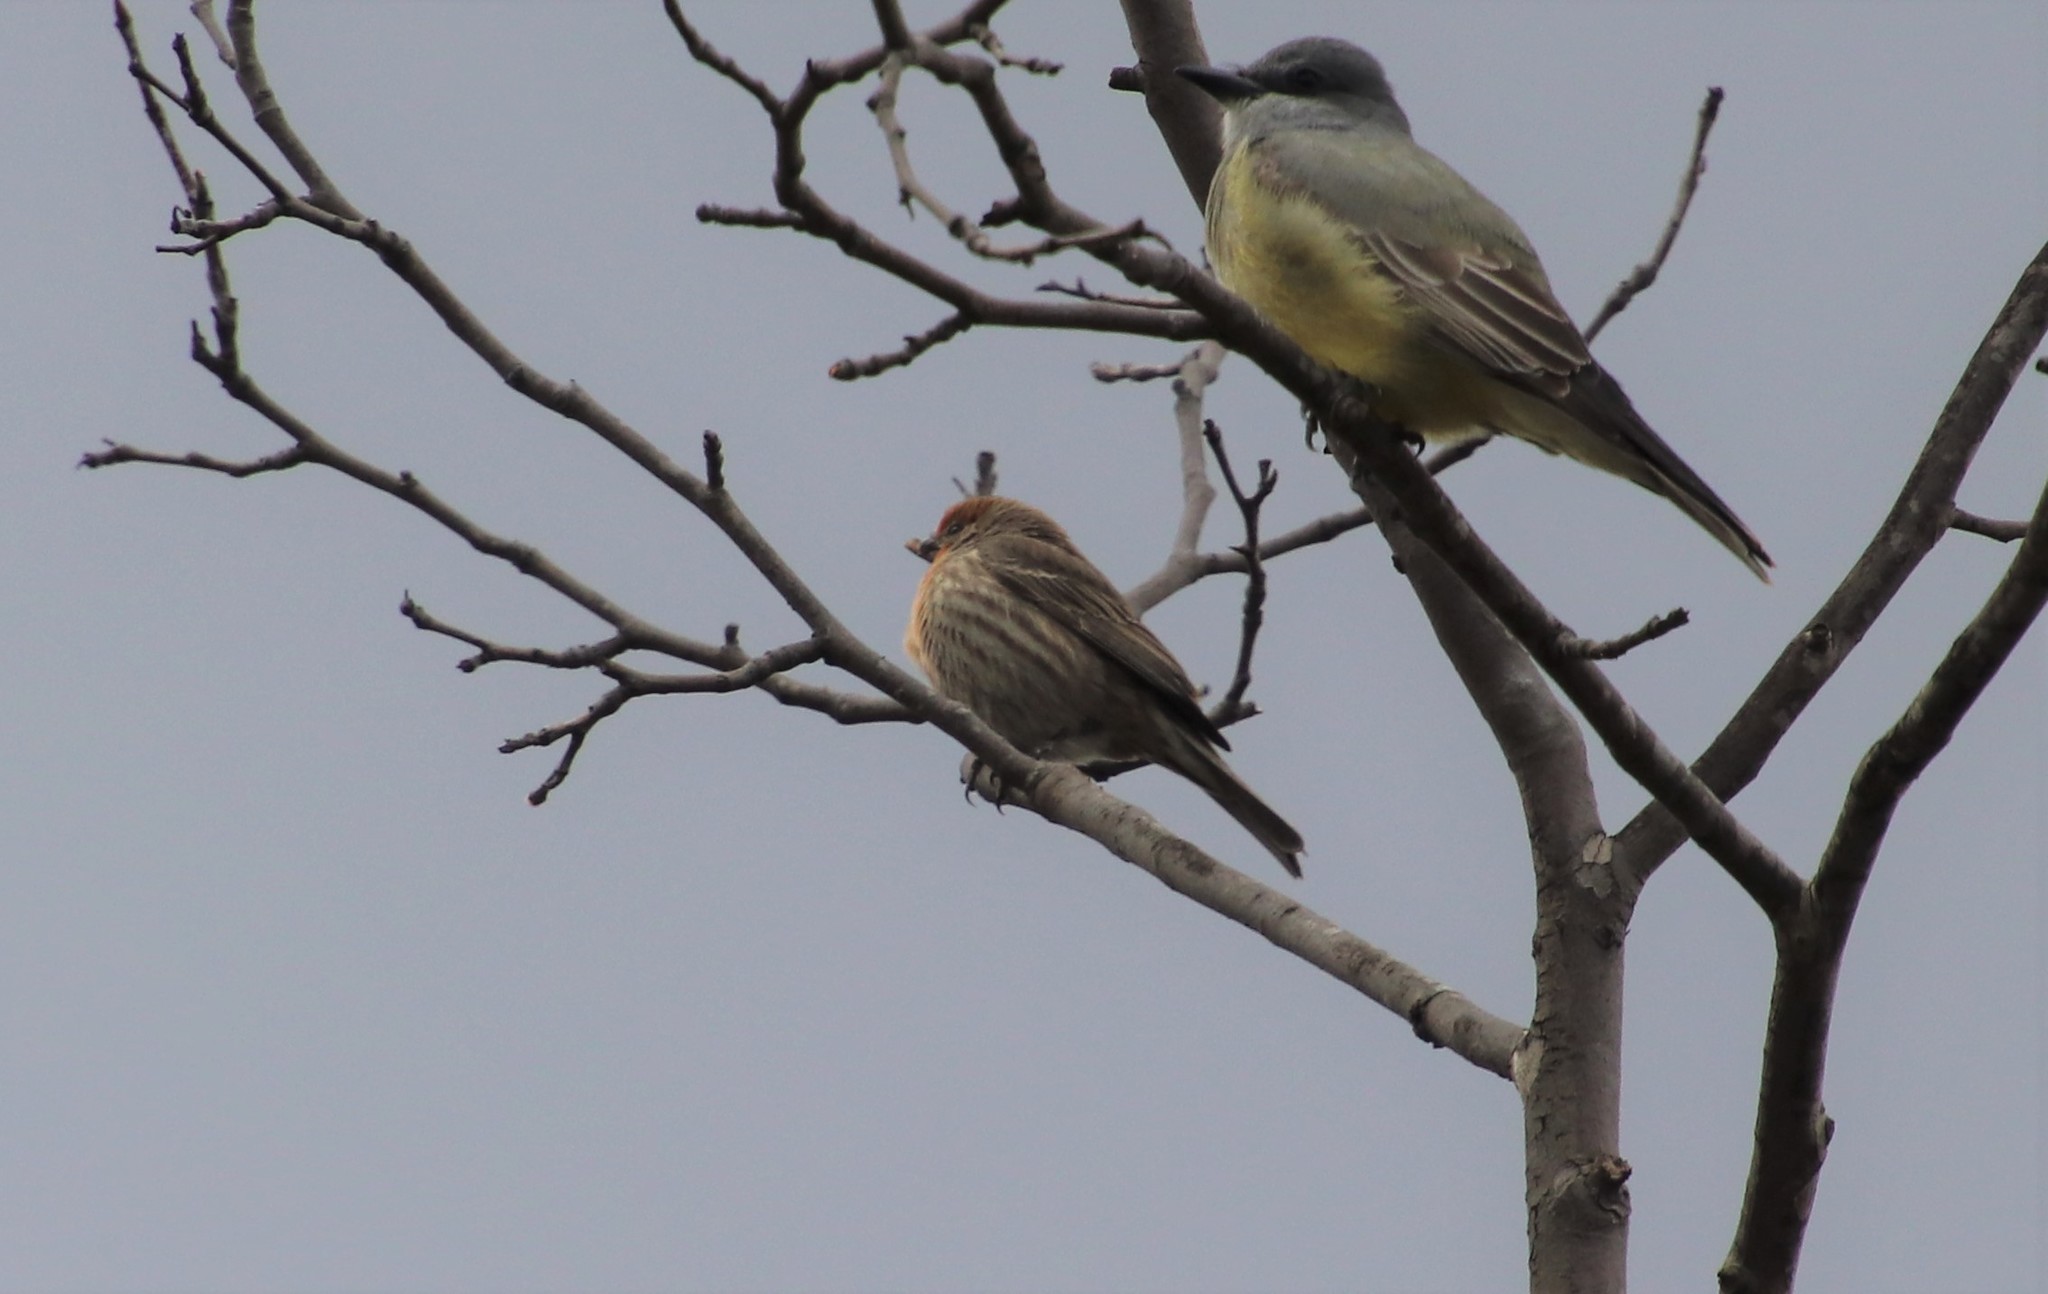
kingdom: Animalia
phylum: Chordata
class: Aves
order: Passeriformes
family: Fringillidae
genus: Haemorhous
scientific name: Haemorhous mexicanus
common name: House finch
